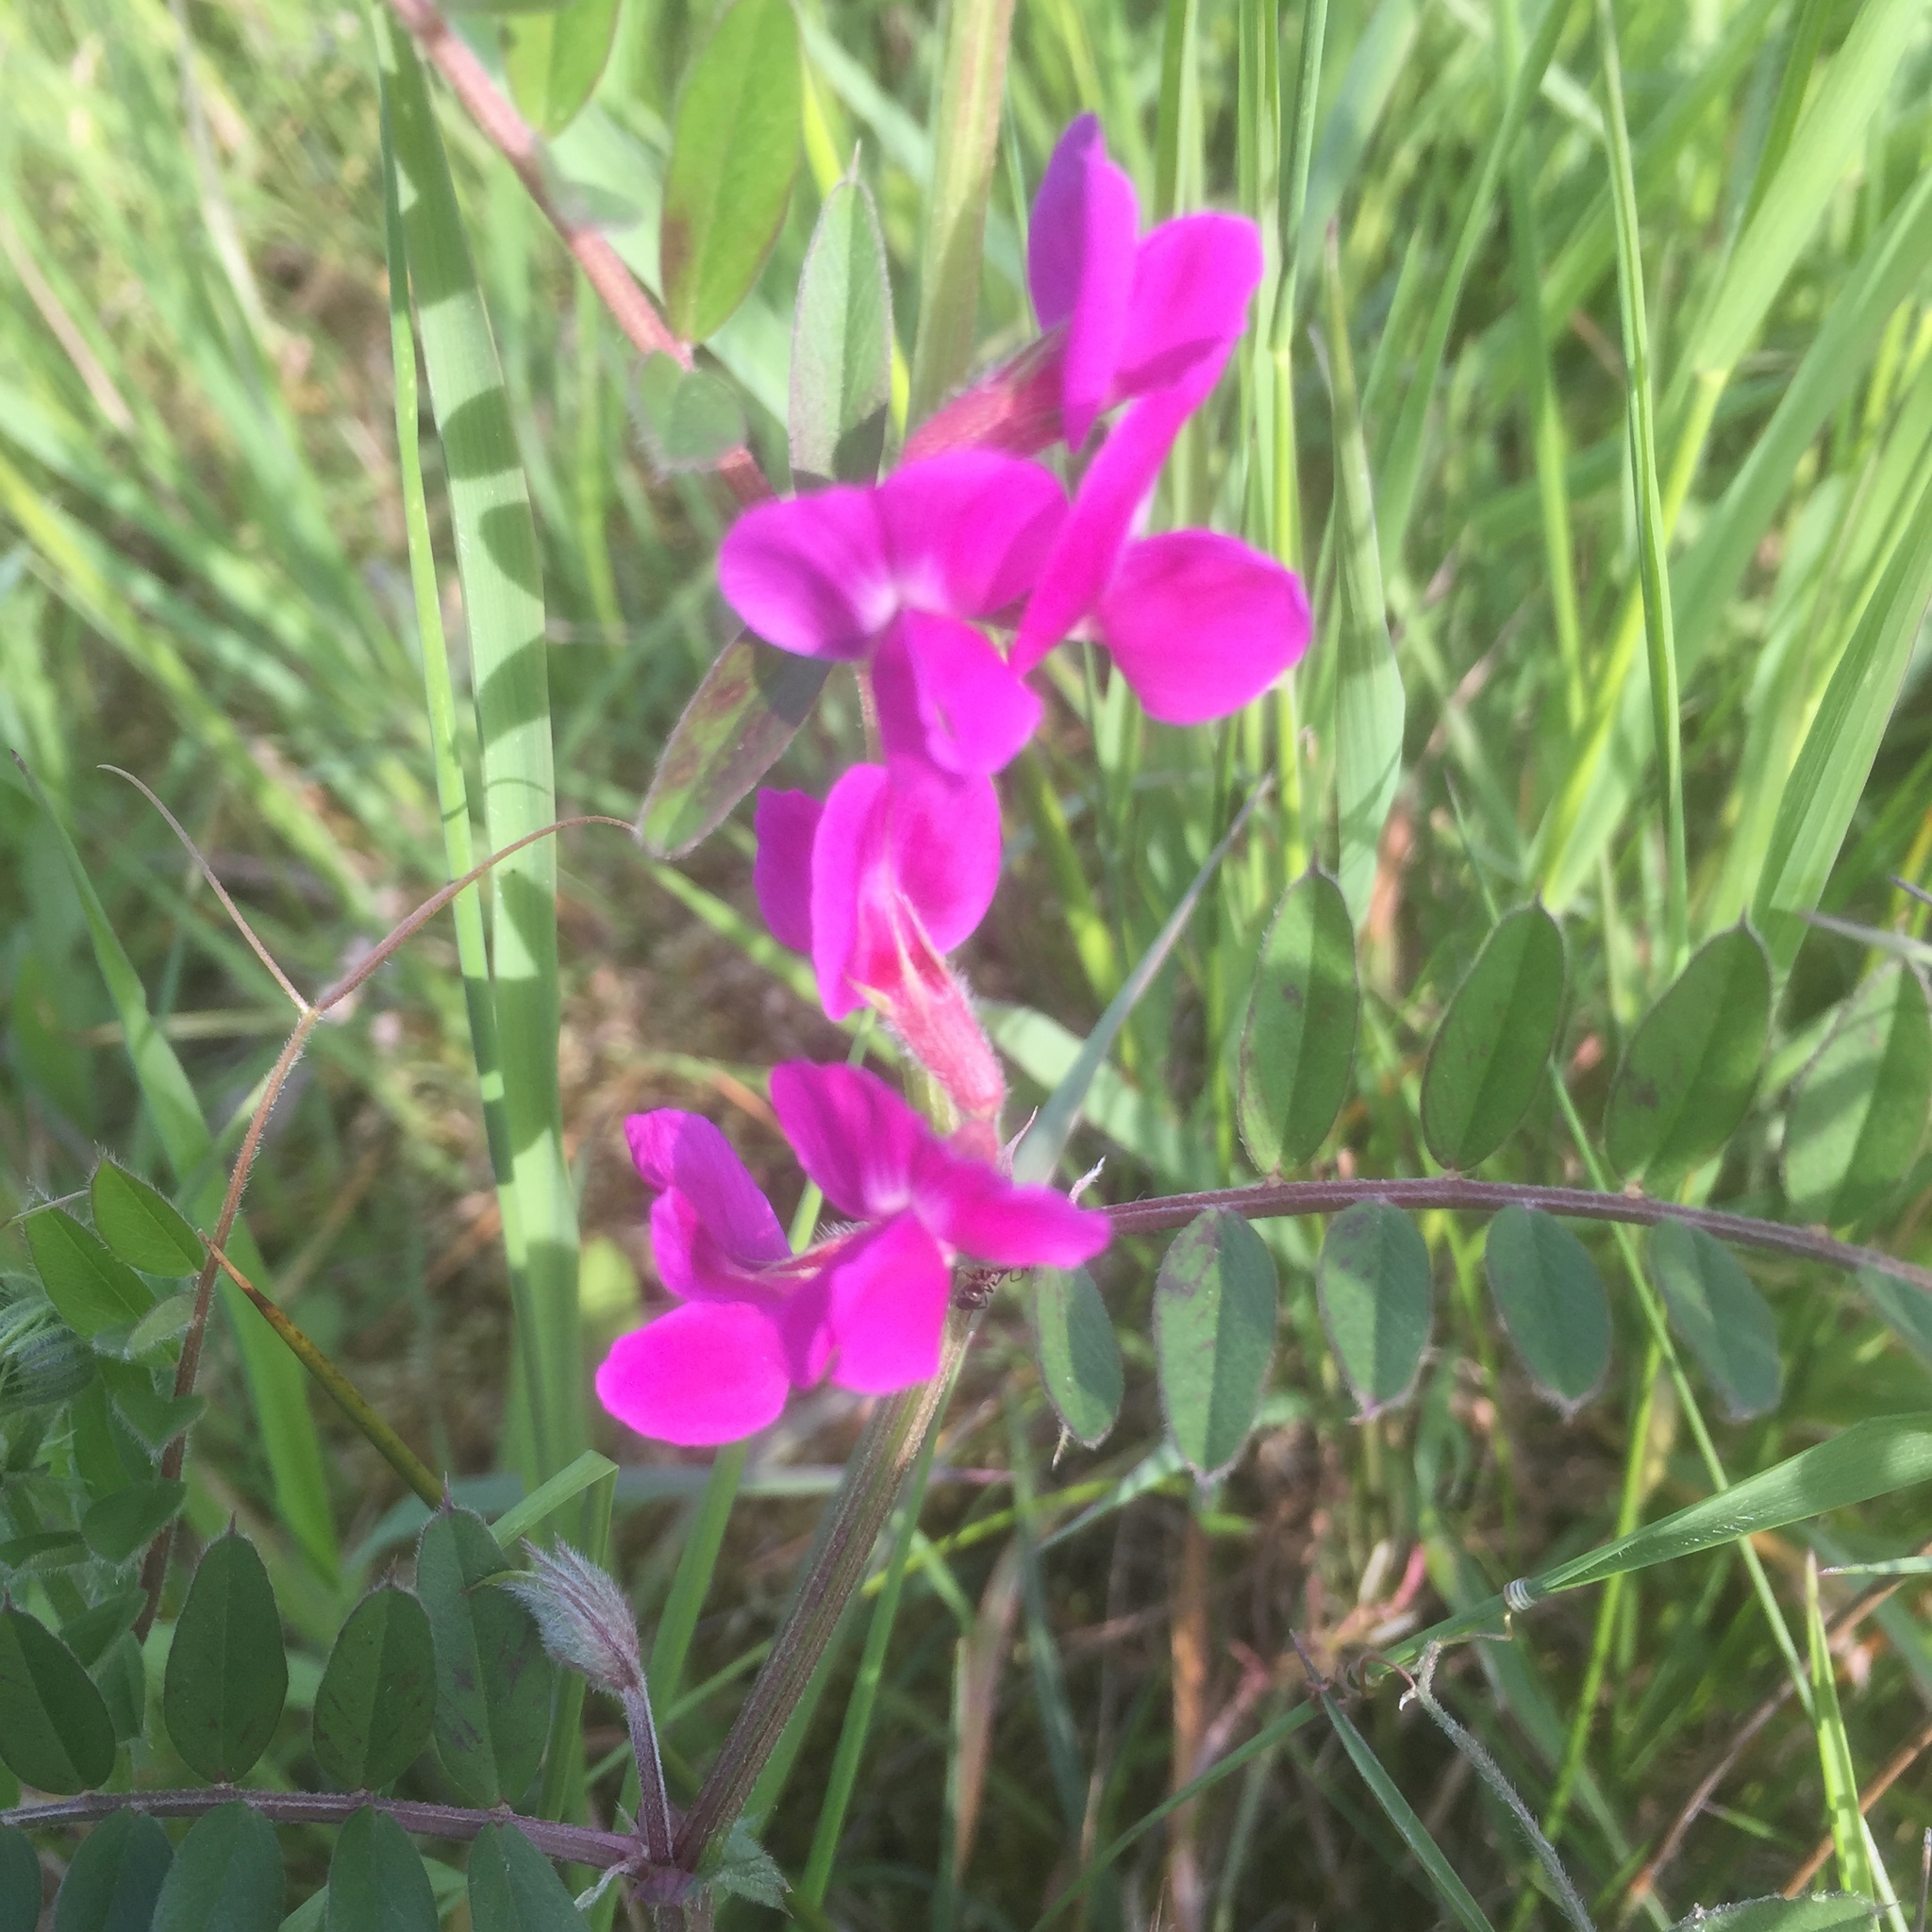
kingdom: Plantae
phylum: Tracheophyta
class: Magnoliopsida
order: Fabales
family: Fabaceae
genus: Vicia
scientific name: Vicia sativa
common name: Garden vetch
